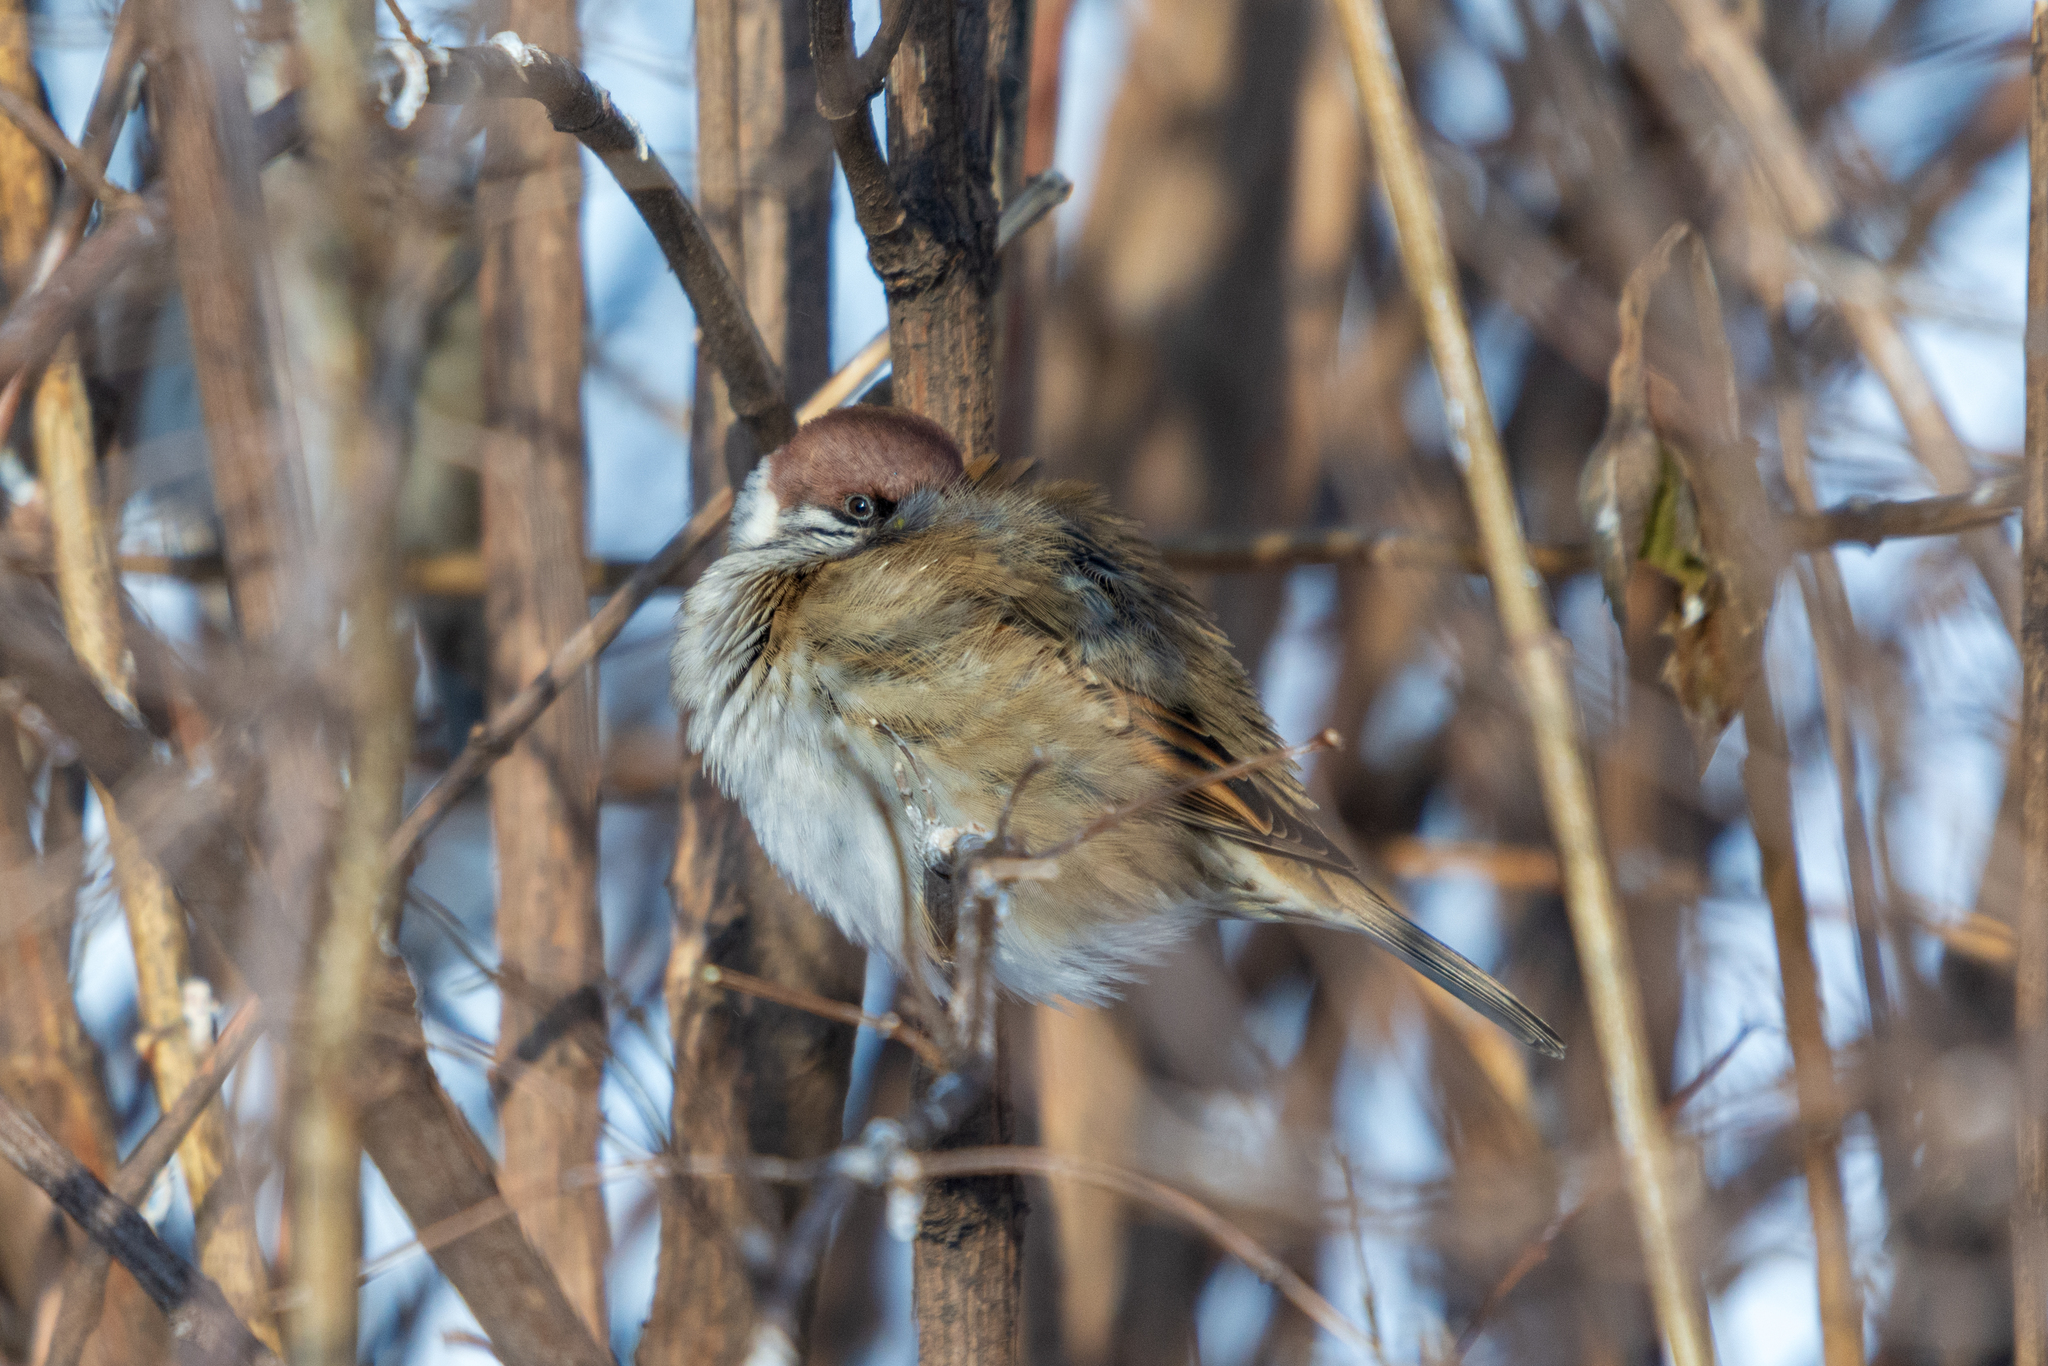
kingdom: Animalia
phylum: Chordata
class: Aves
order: Passeriformes
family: Passeridae
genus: Passer
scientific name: Passer montanus
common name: Eurasian tree sparrow
